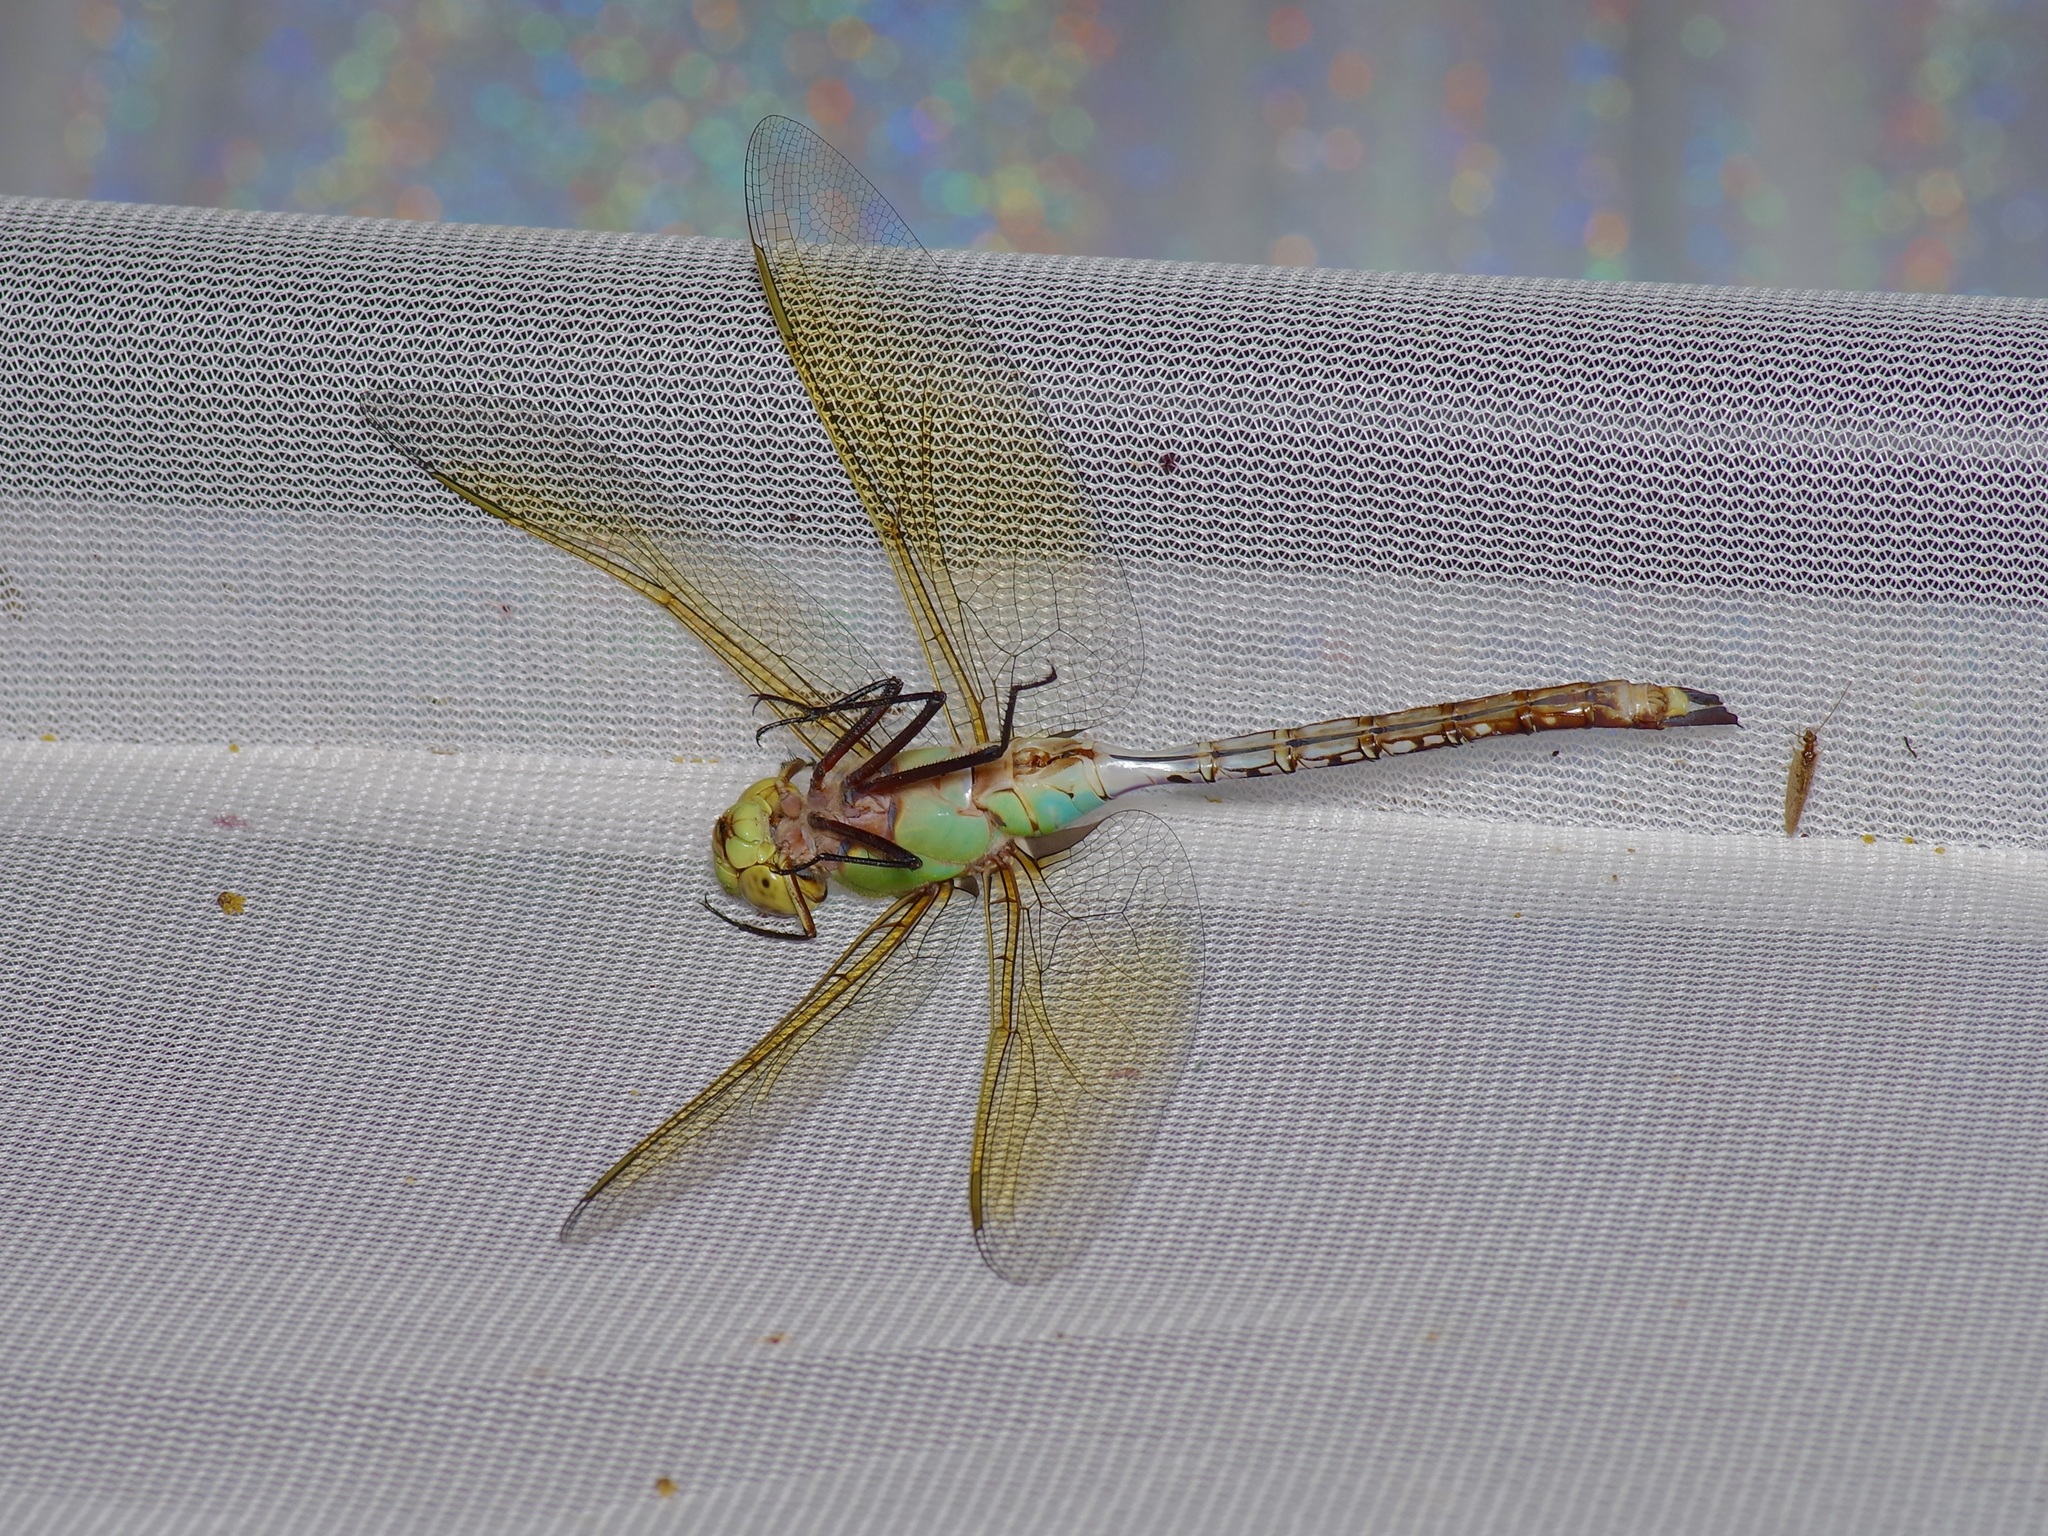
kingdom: Animalia
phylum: Arthropoda
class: Insecta
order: Odonata
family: Aeshnidae
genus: Anax
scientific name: Anax junius
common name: Common green darner
